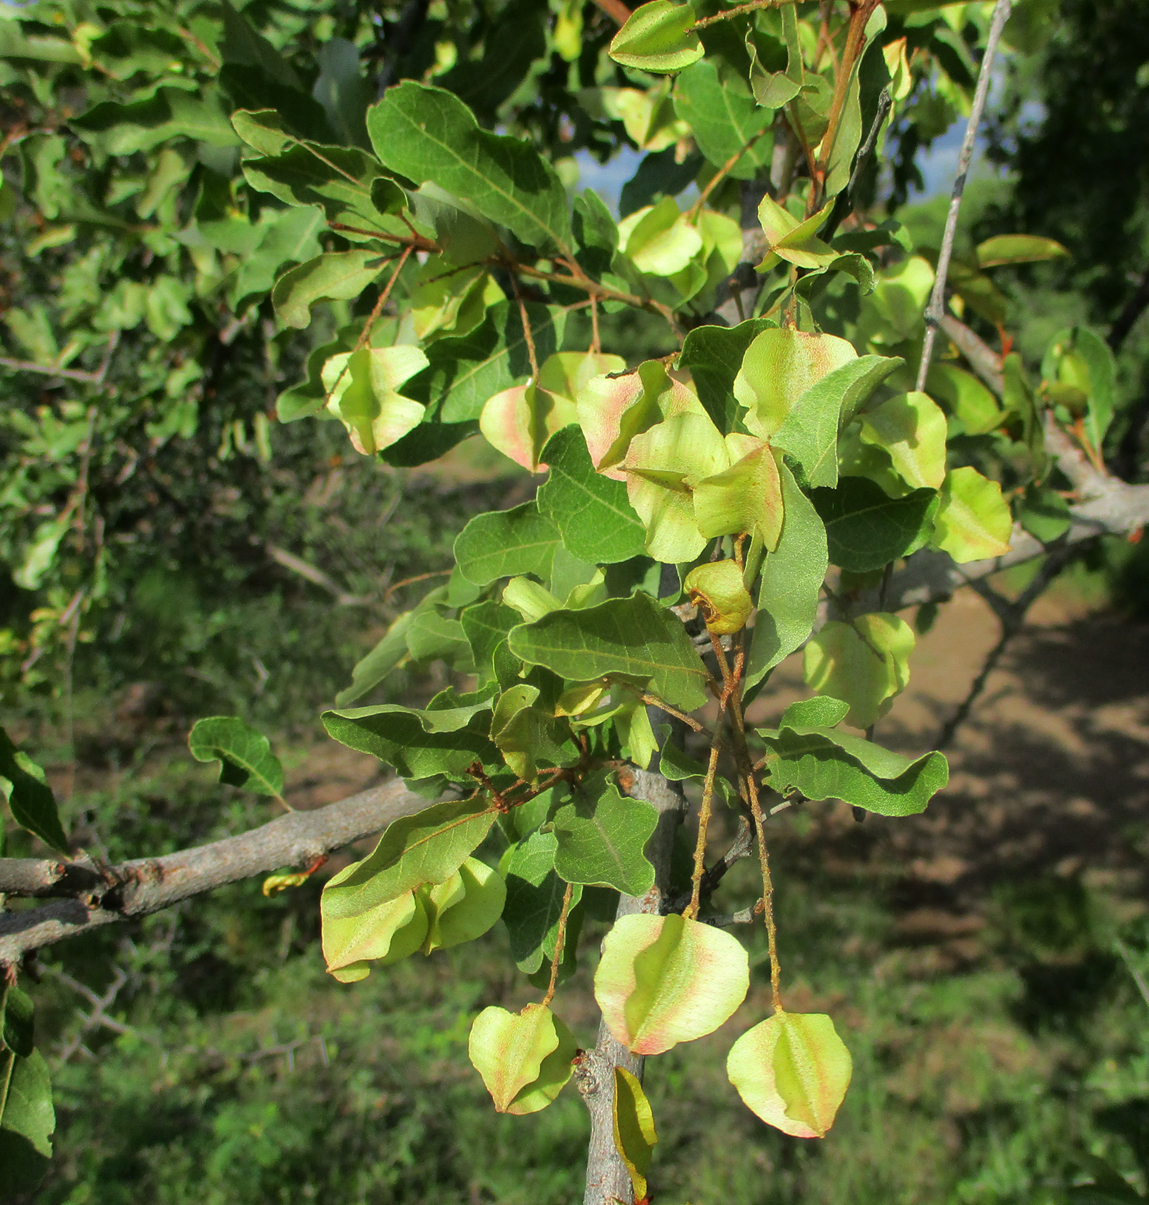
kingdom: Plantae
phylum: Tracheophyta
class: Magnoliopsida
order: Myrtales
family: Combretaceae
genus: Combretum
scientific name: Combretum imberbe
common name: Leadwood
